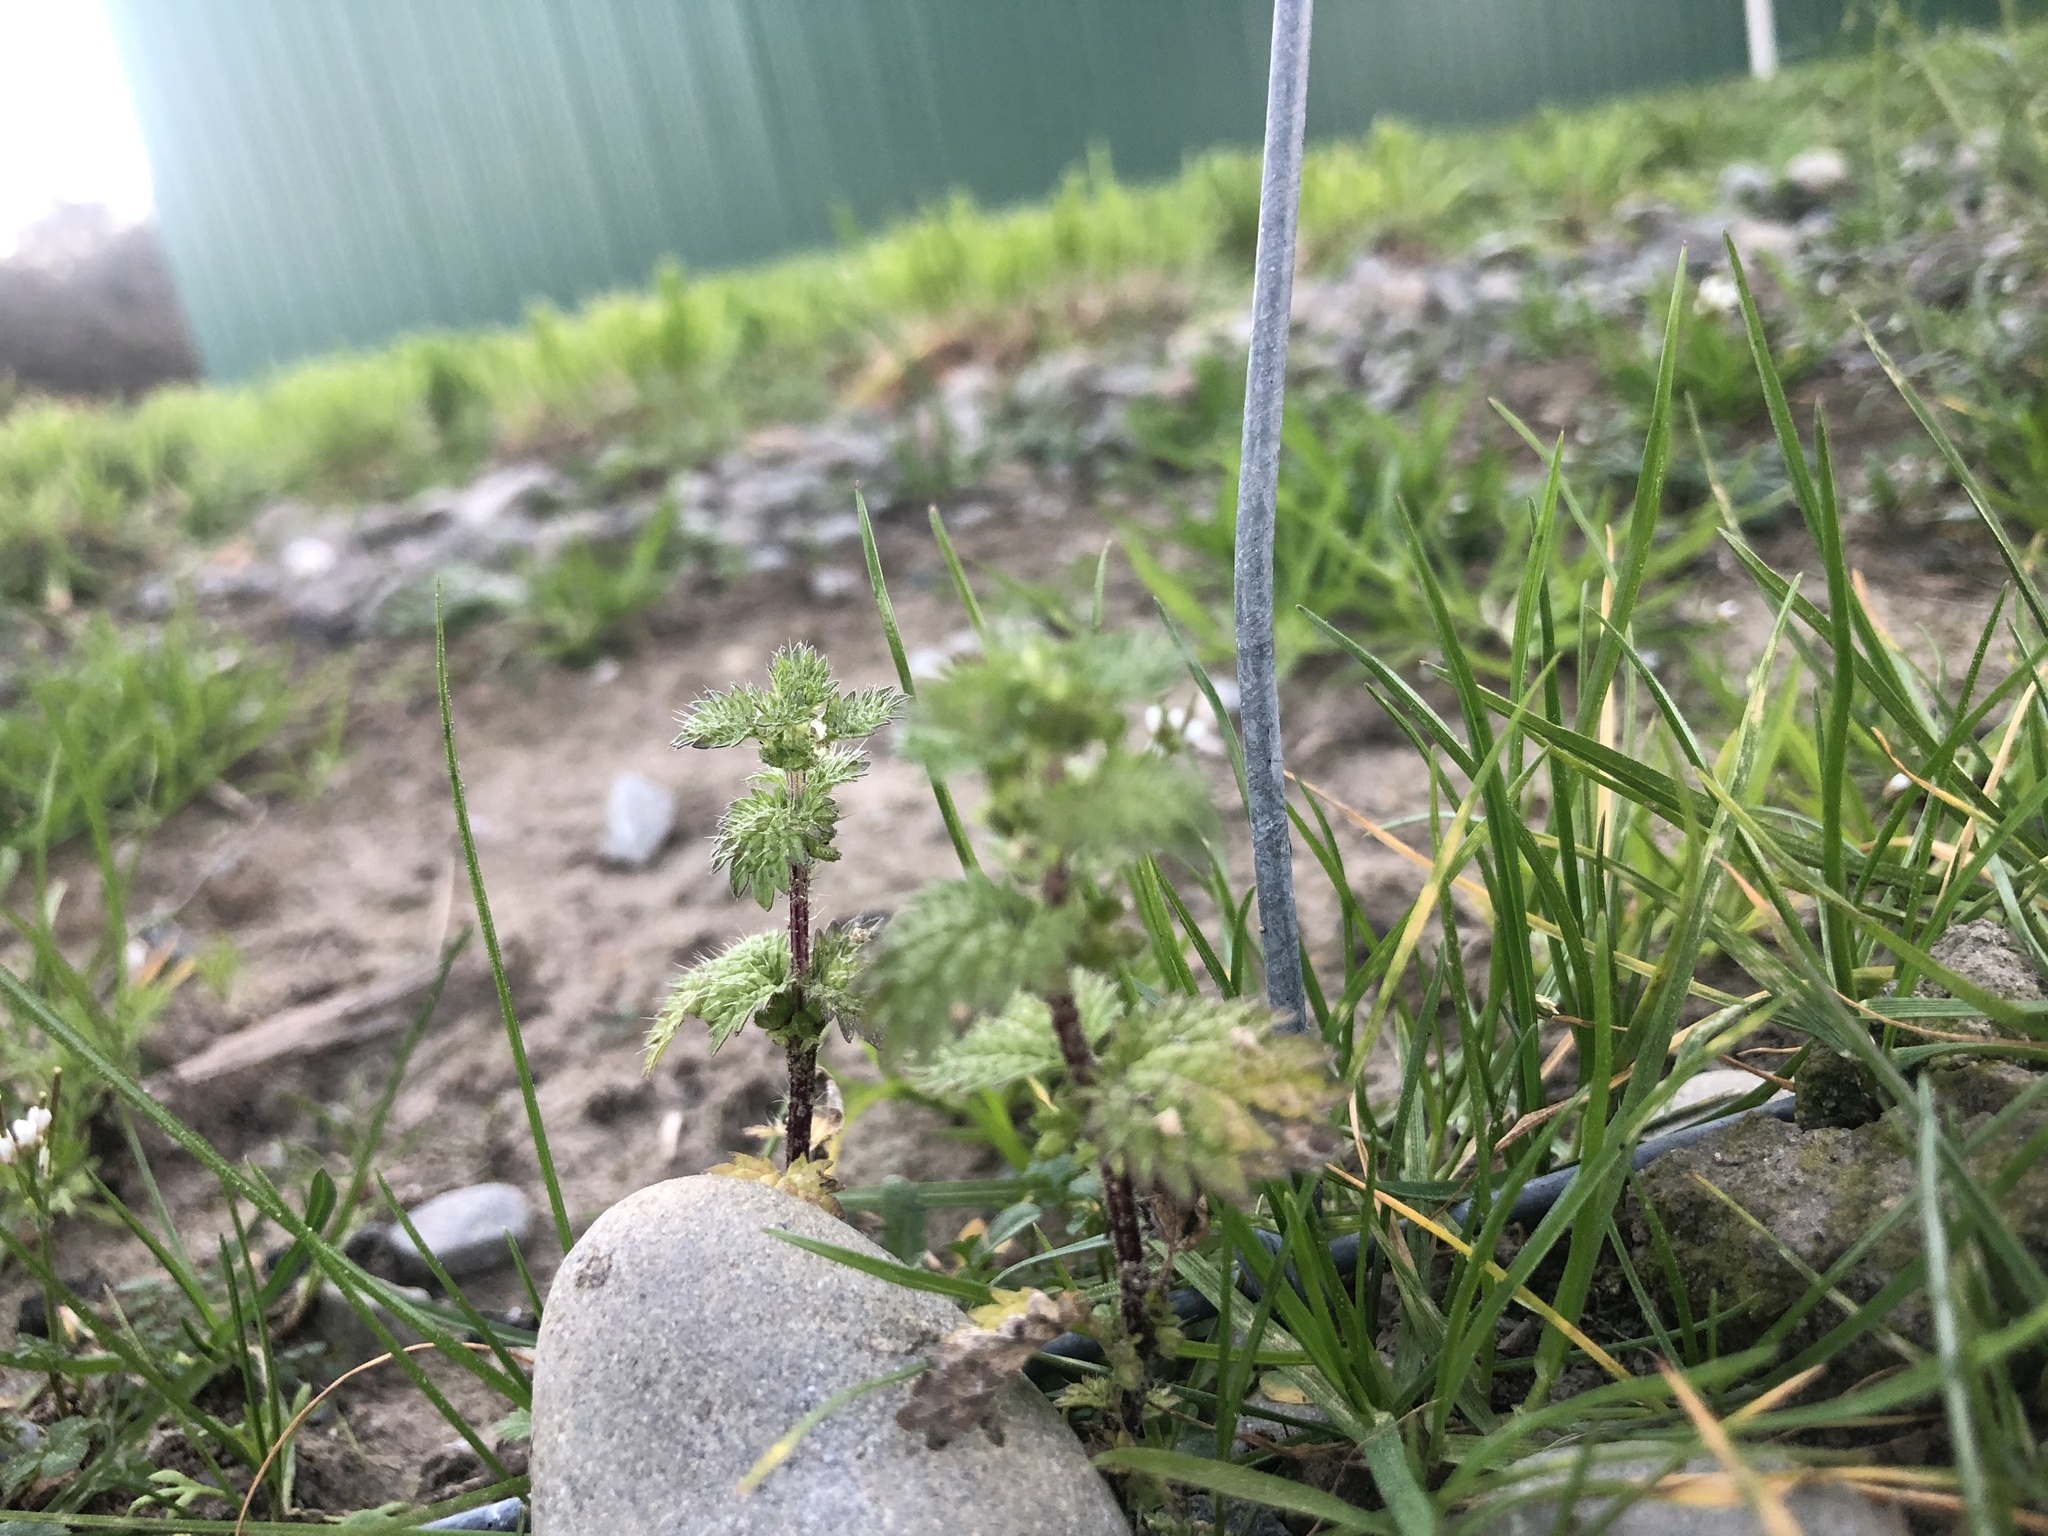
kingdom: Plantae
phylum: Tracheophyta
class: Magnoliopsida
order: Rosales
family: Urticaceae
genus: Urtica
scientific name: Urtica urens
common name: Dwarf nettle
